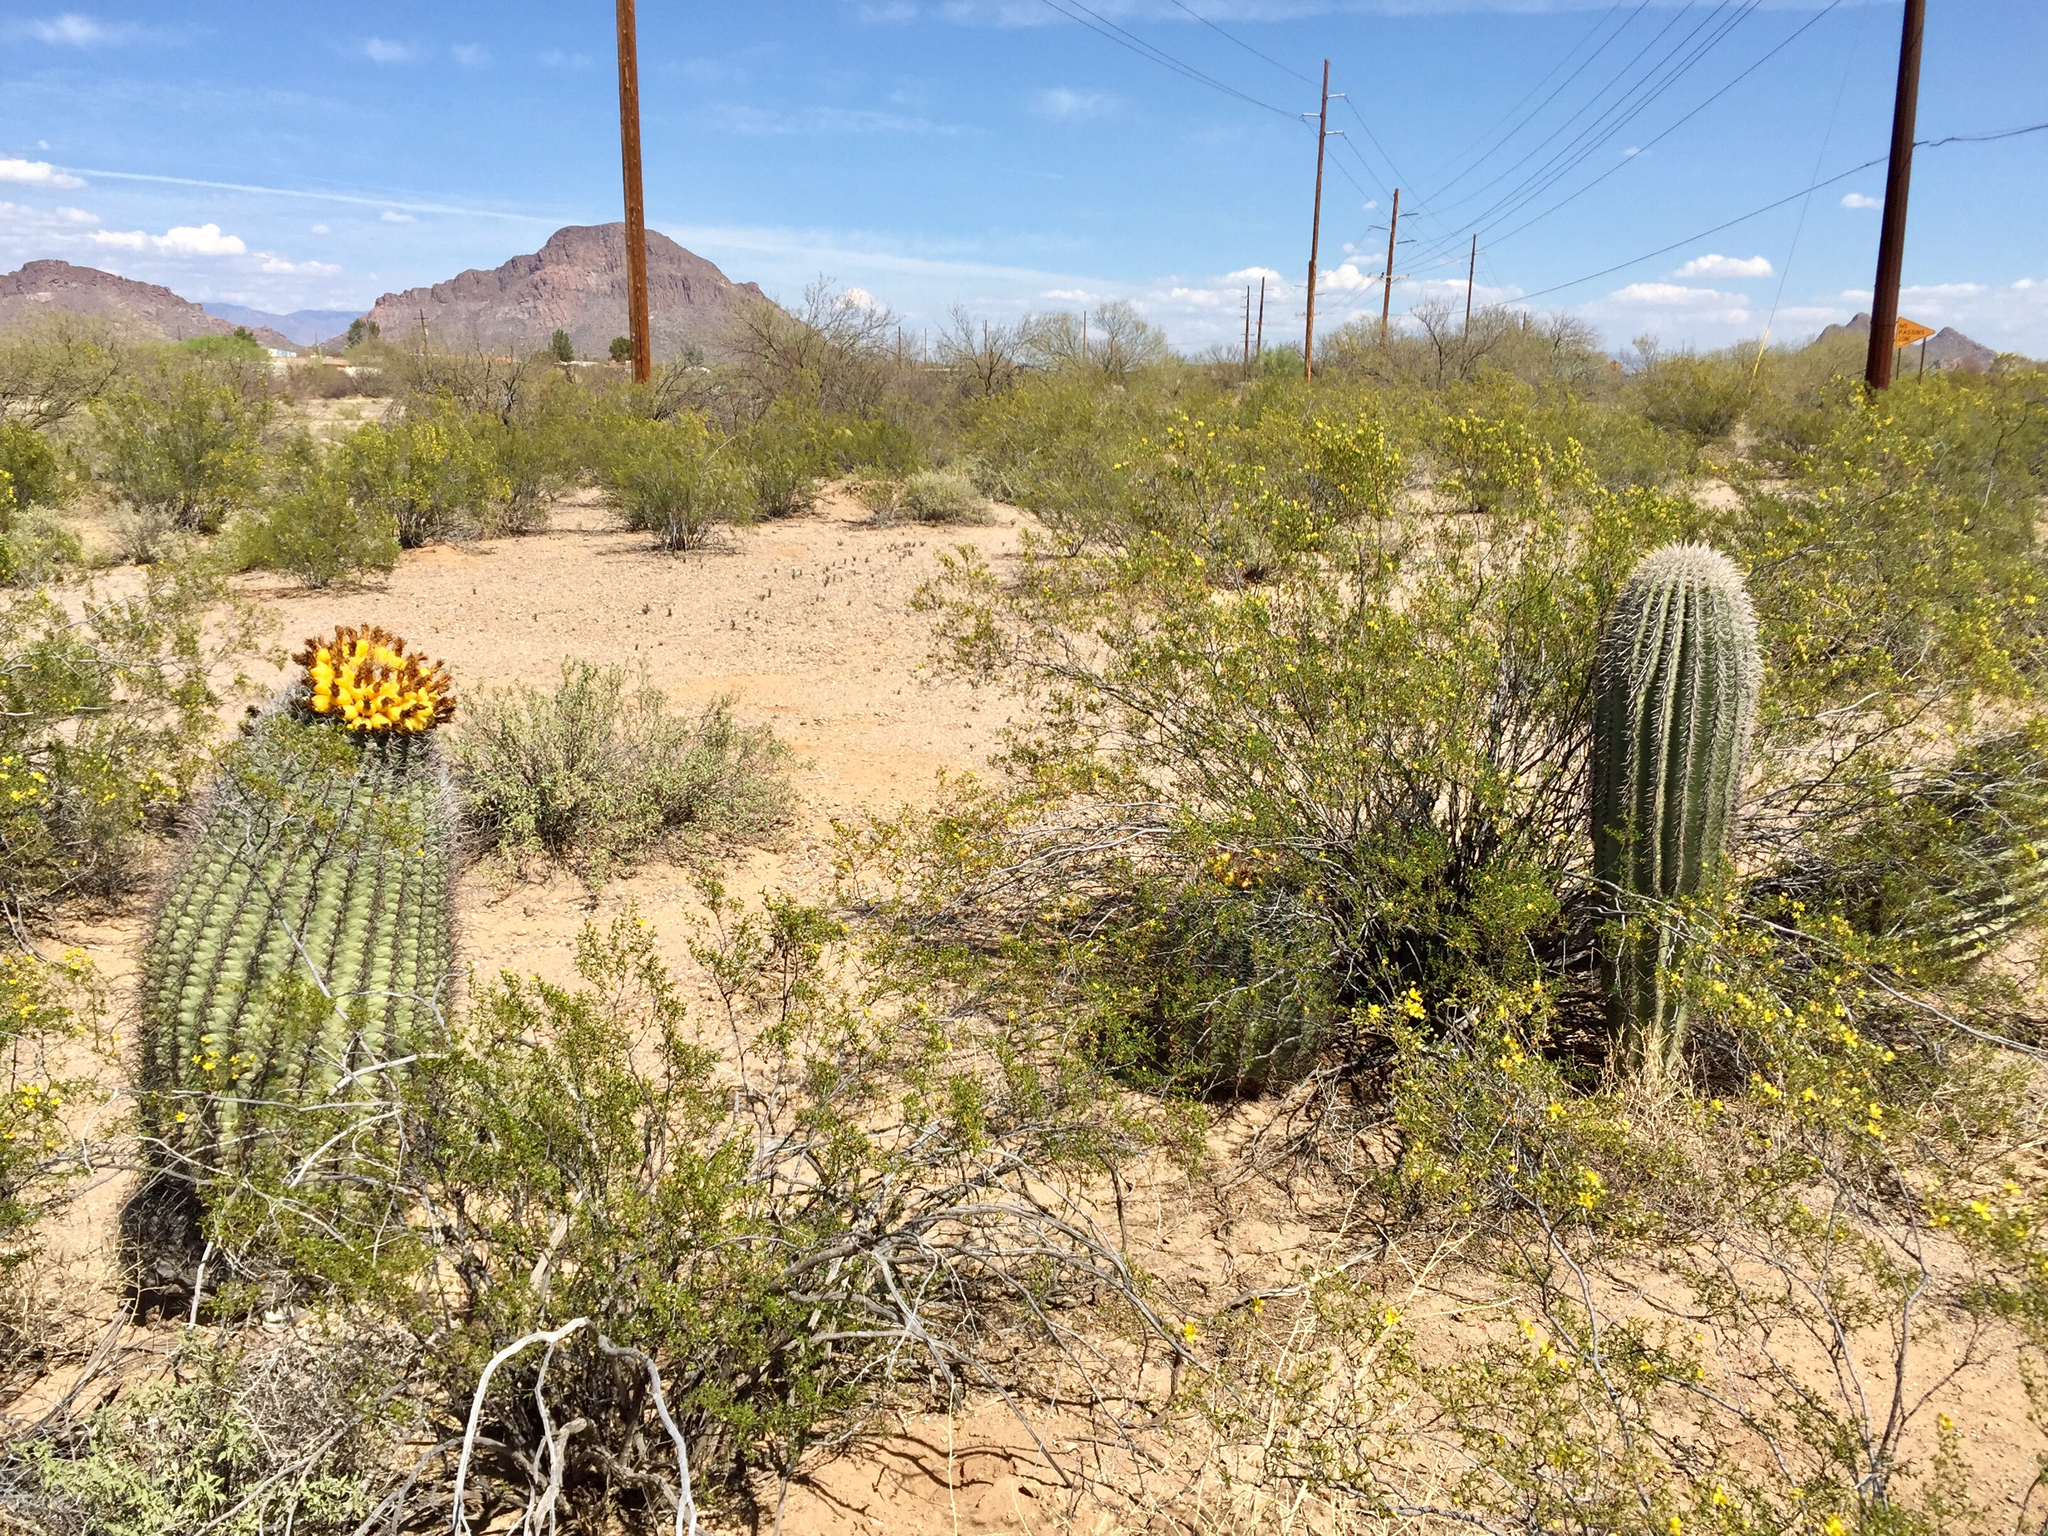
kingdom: Plantae
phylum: Tracheophyta
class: Magnoliopsida
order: Caryophyllales
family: Cactaceae
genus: Carnegiea
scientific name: Carnegiea gigantea
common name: Saguaro
